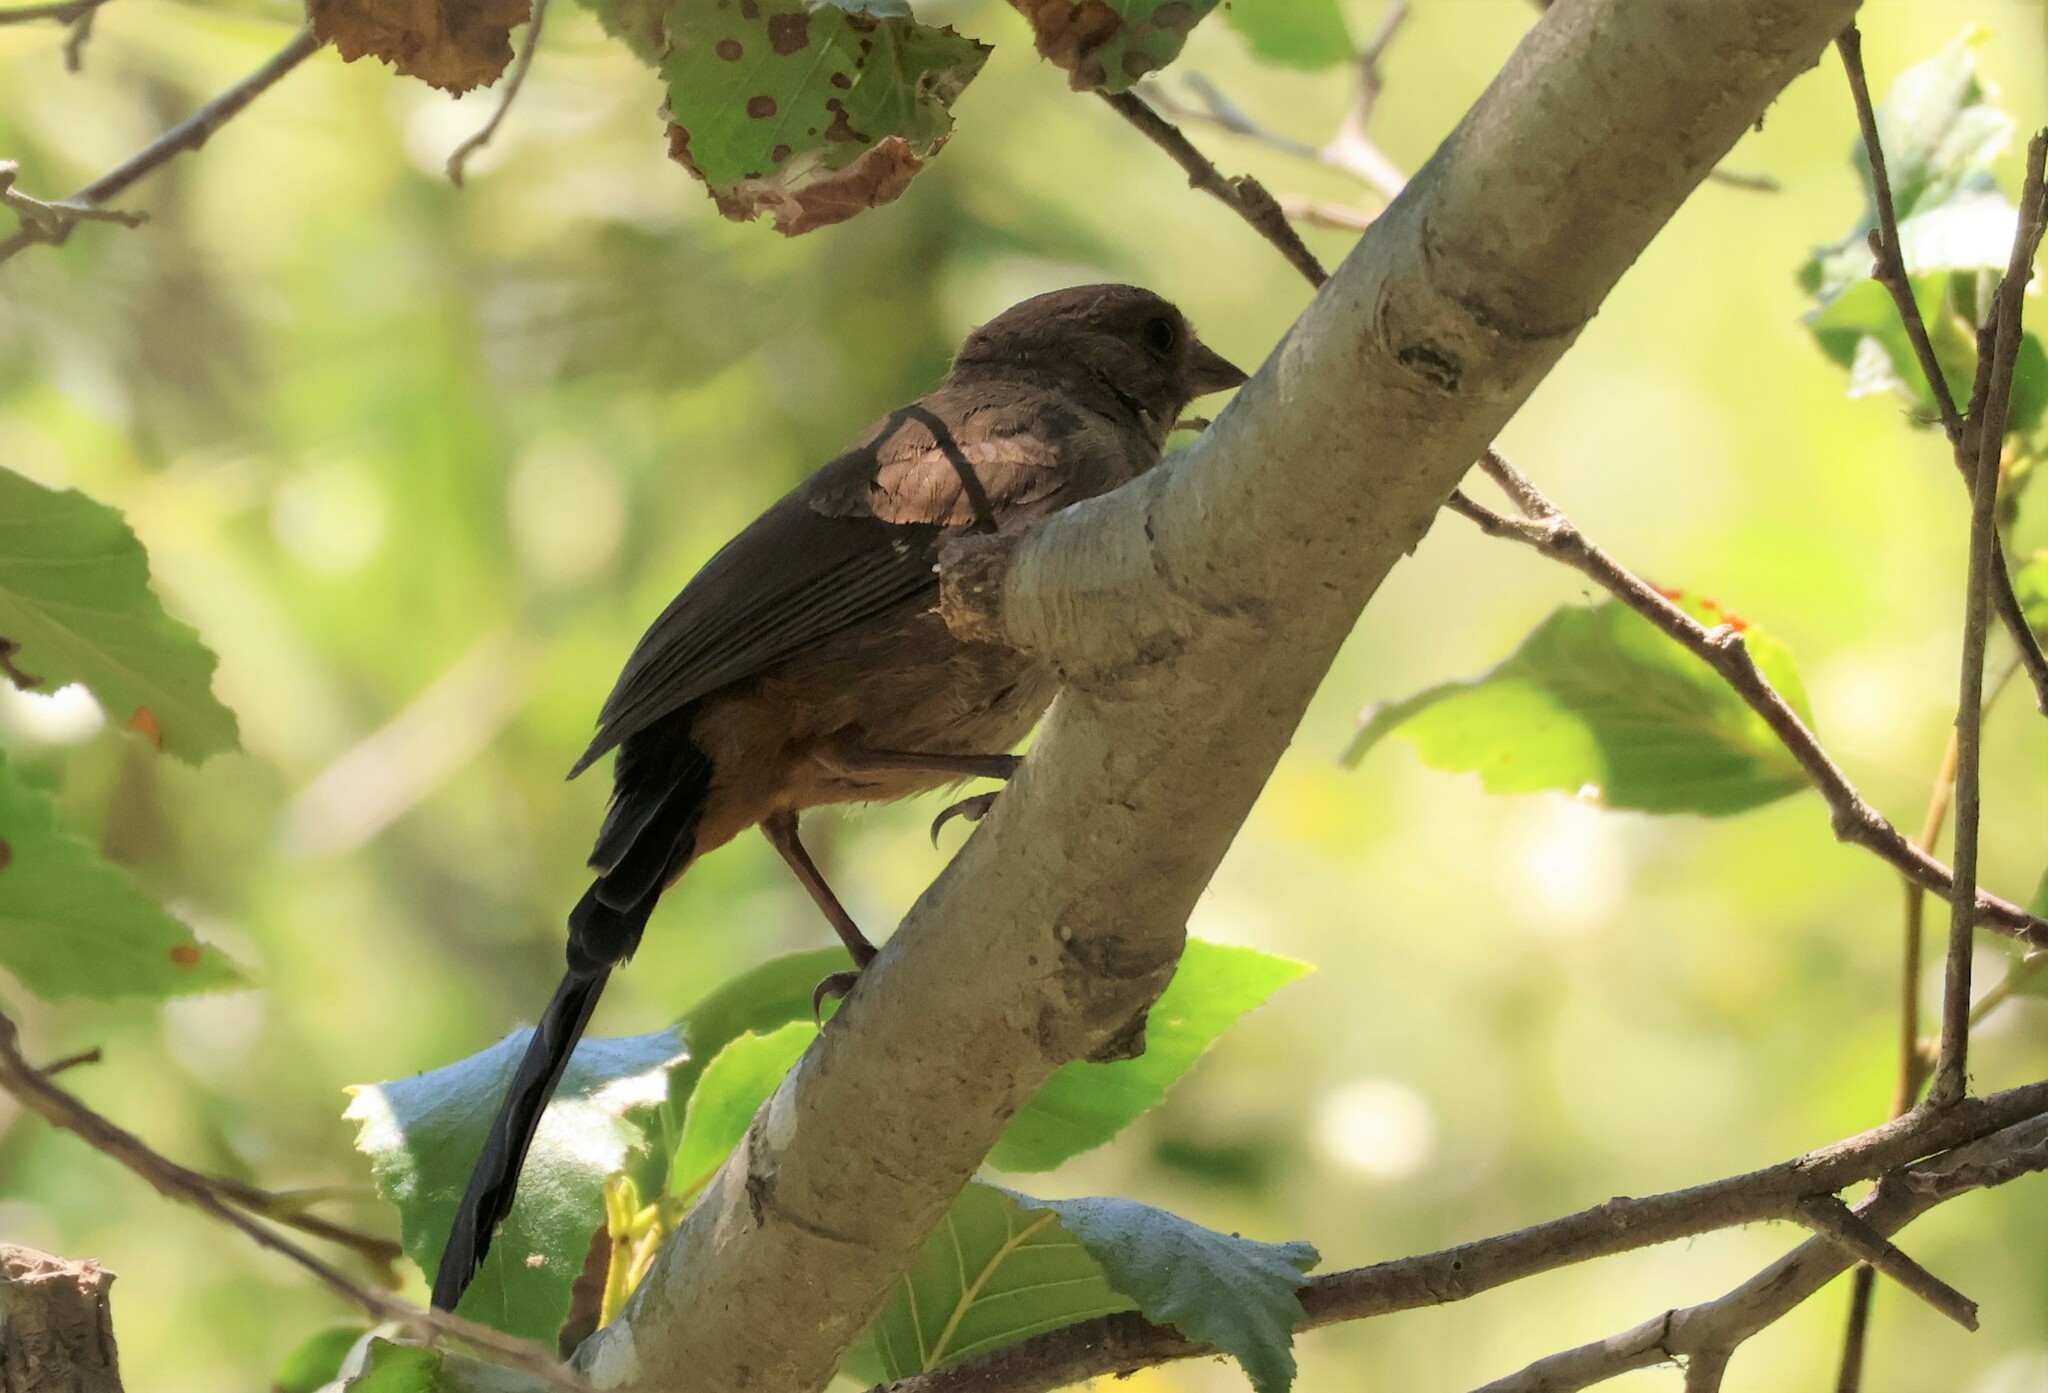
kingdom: Animalia
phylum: Chordata
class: Aves
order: Passeriformes
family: Passerellidae
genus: Melozone
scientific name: Melozone crissalis
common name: California towhee
